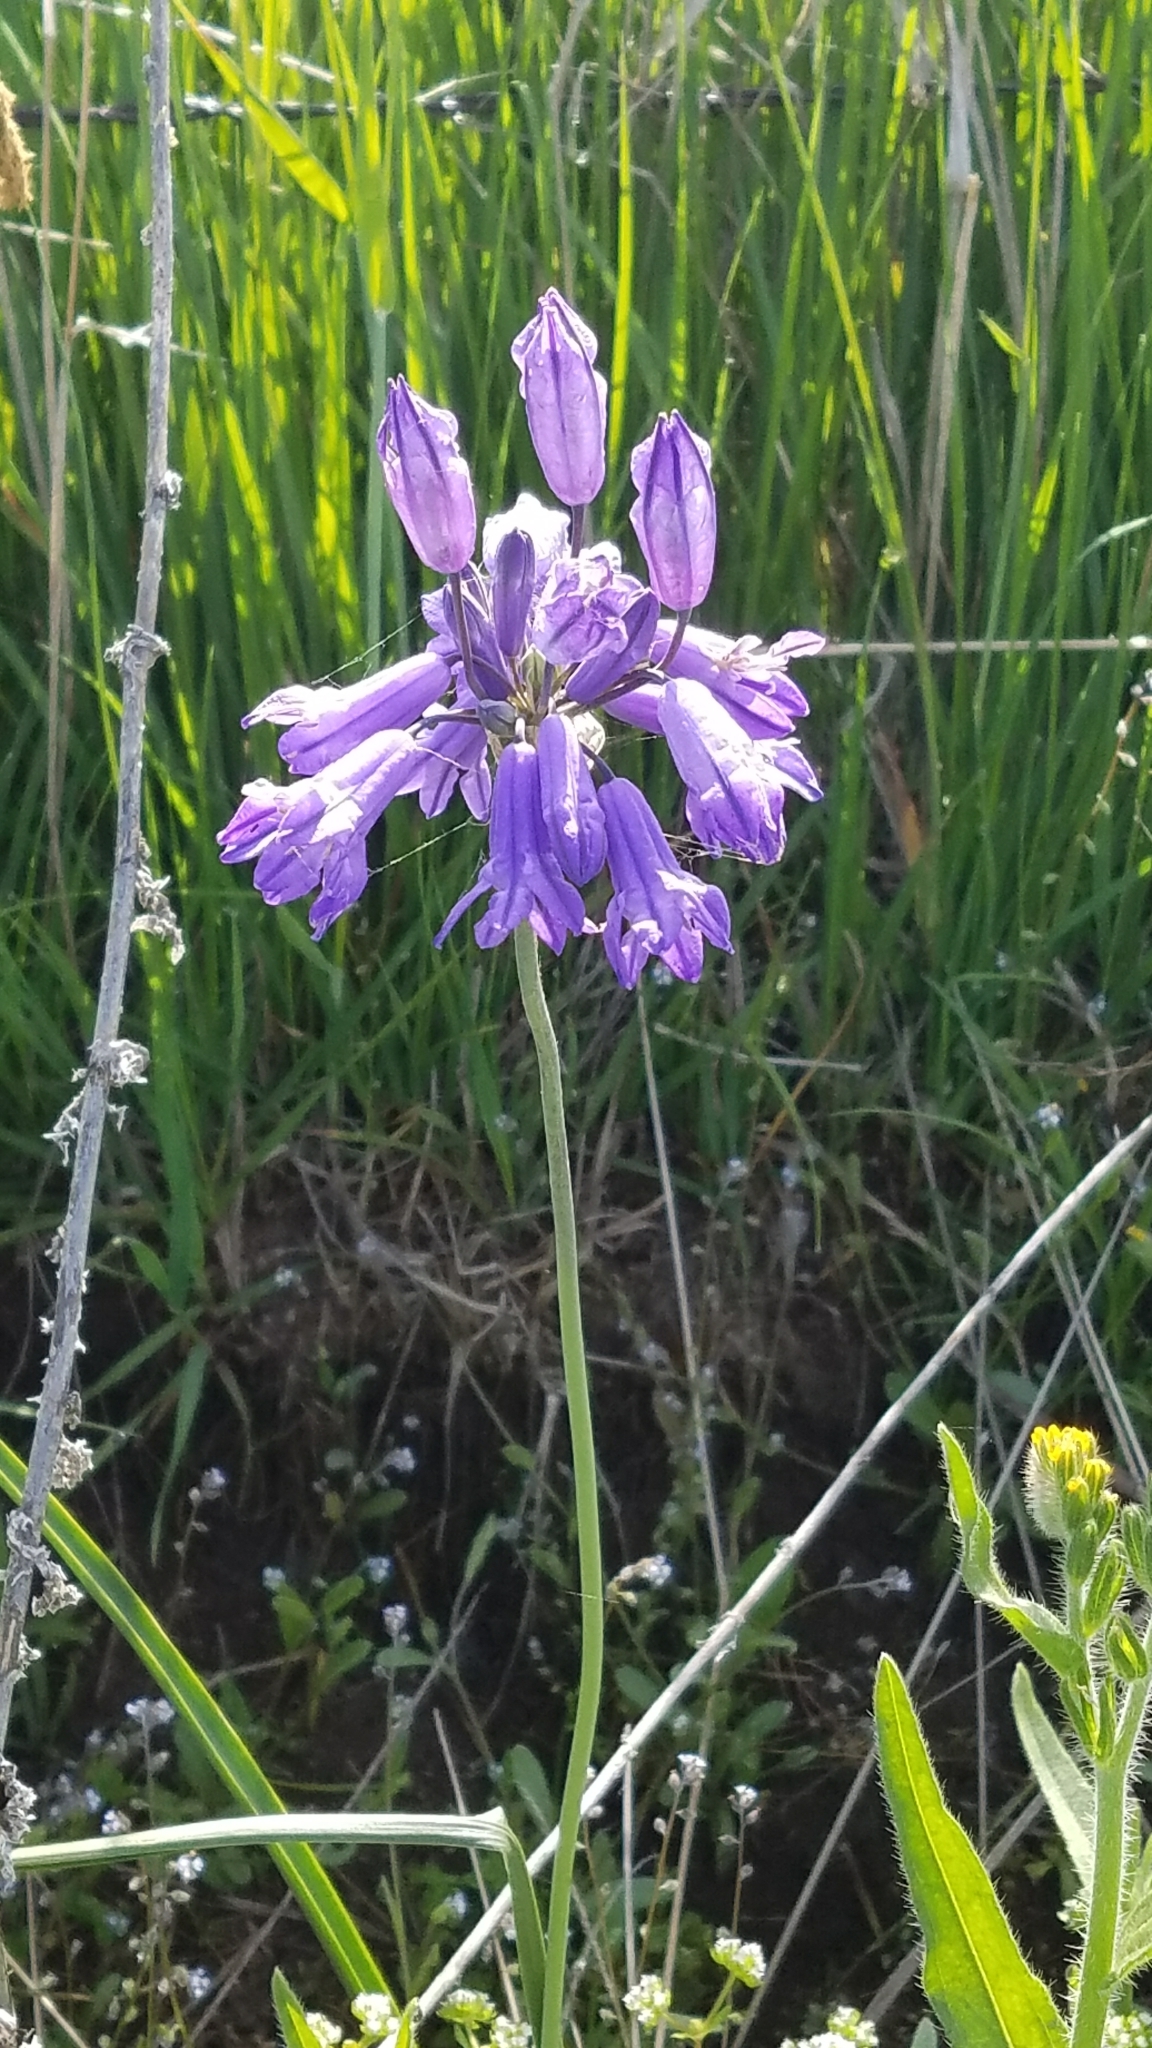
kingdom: Plantae
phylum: Tracheophyta
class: Liliopsida
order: Asparagales
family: Asparagaceae
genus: Triteleia
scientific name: Triteleia grandiflora
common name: Wild hyacinth
